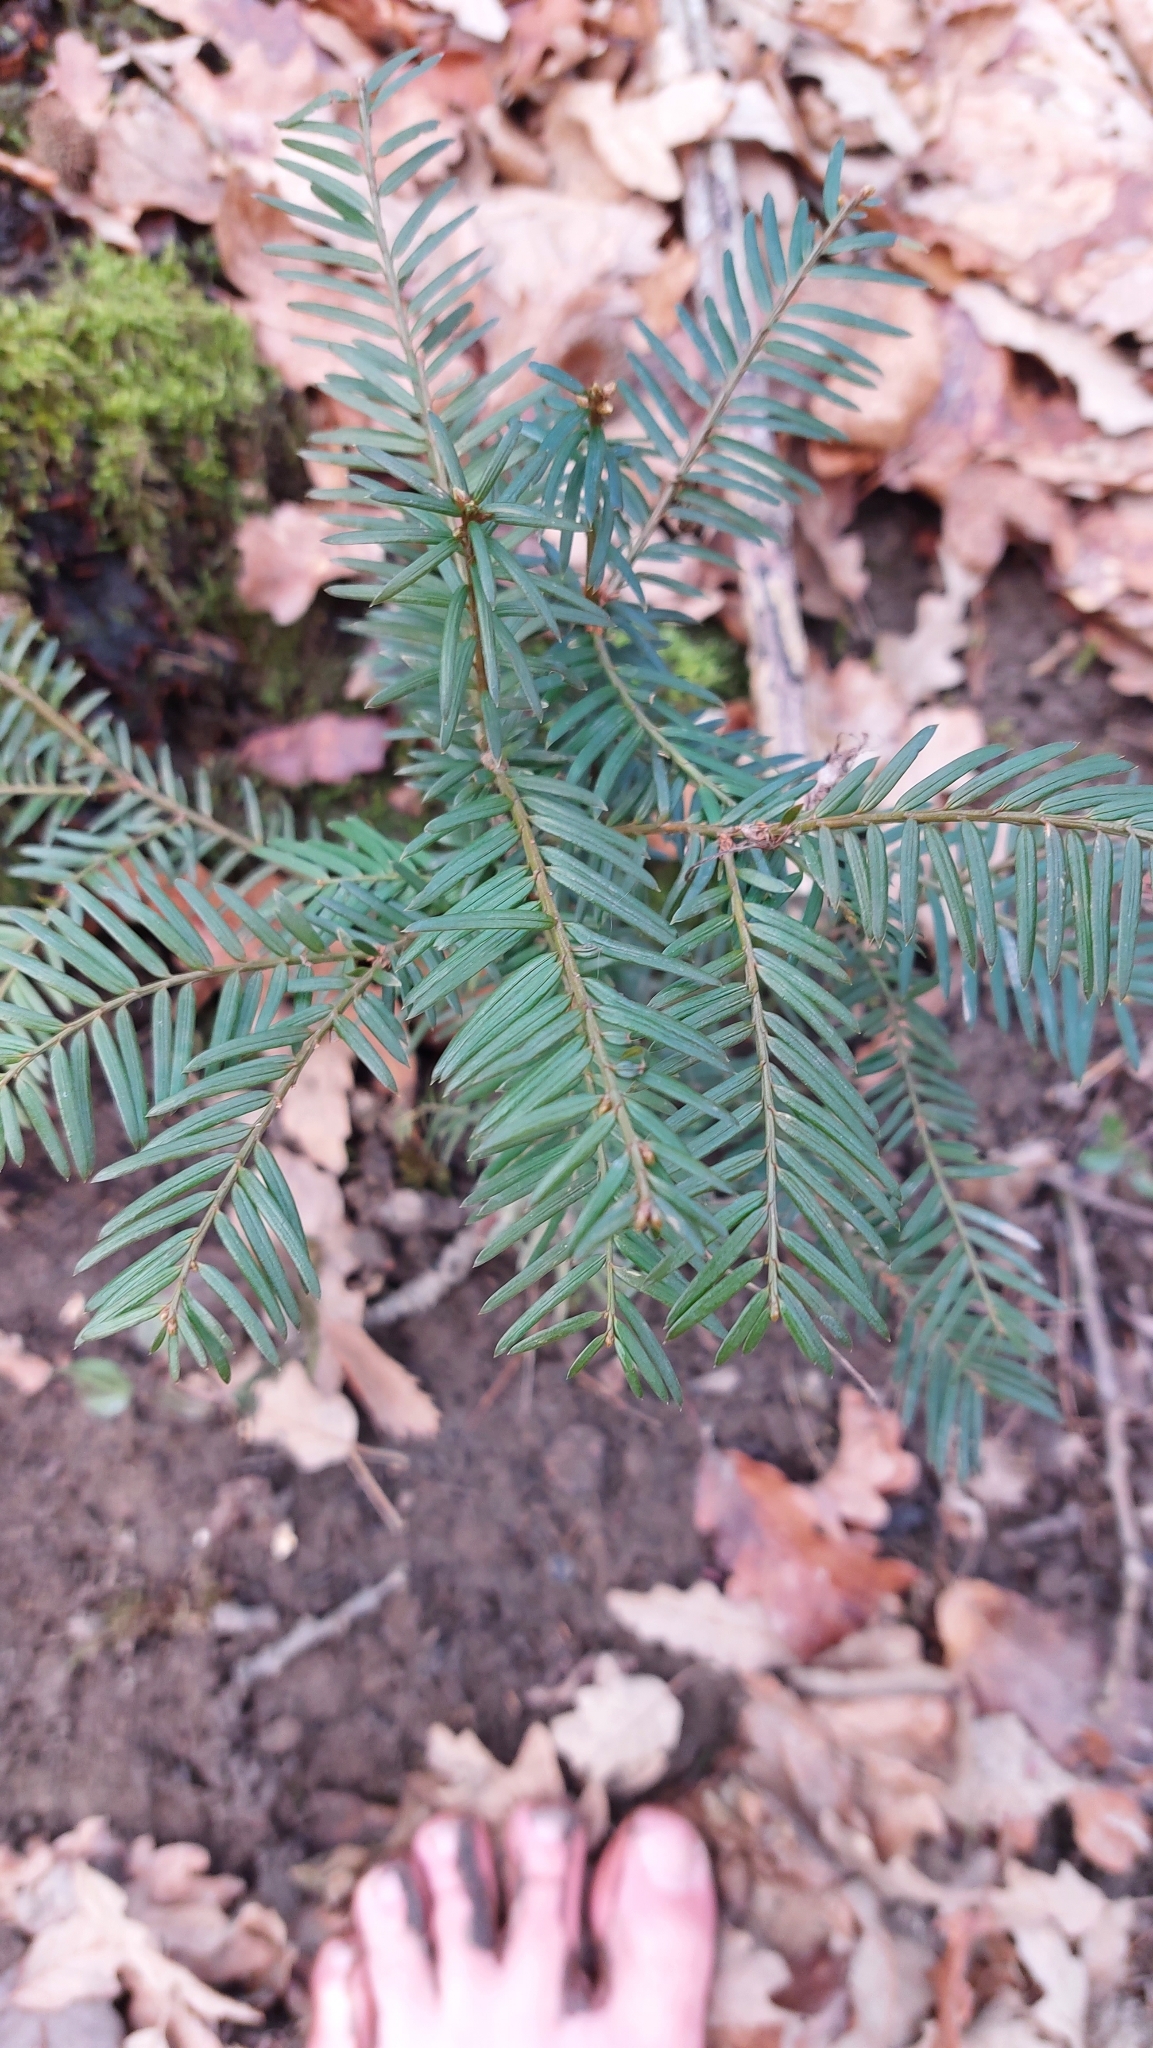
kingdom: Plantae
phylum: Tracheophyta
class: Pinopsida
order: Pinales
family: Taxaceae
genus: Taxus
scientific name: Taxus baccata
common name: Yew
